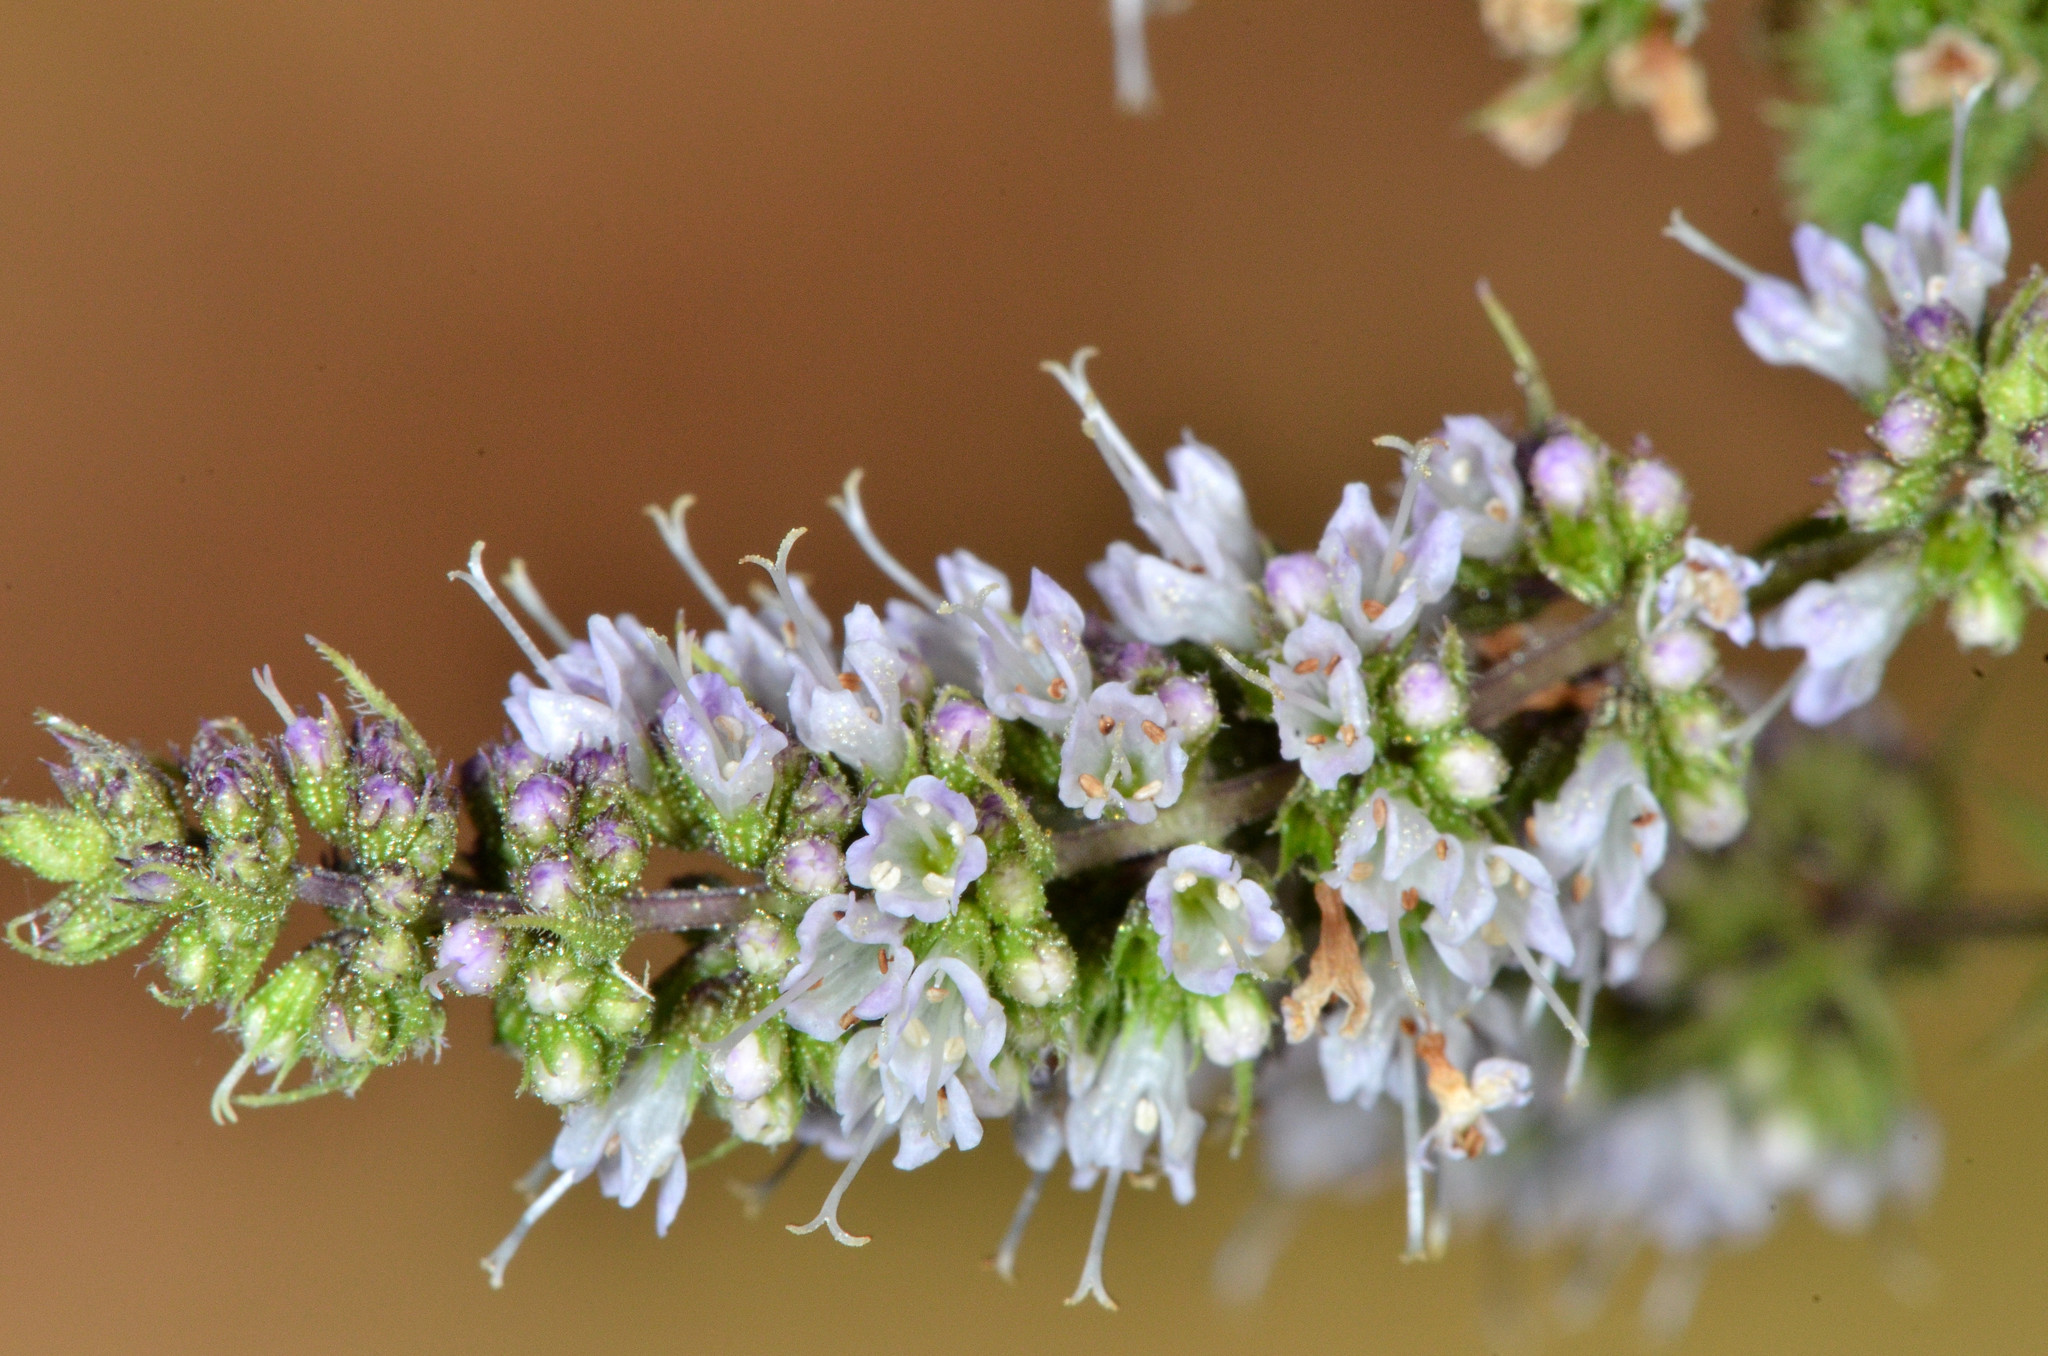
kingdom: Plantae
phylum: Tracheophyta
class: Magnoliopsida
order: Lamiales
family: Lamiaceae
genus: Mentha
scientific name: Mentha spicata
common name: Spearmint
